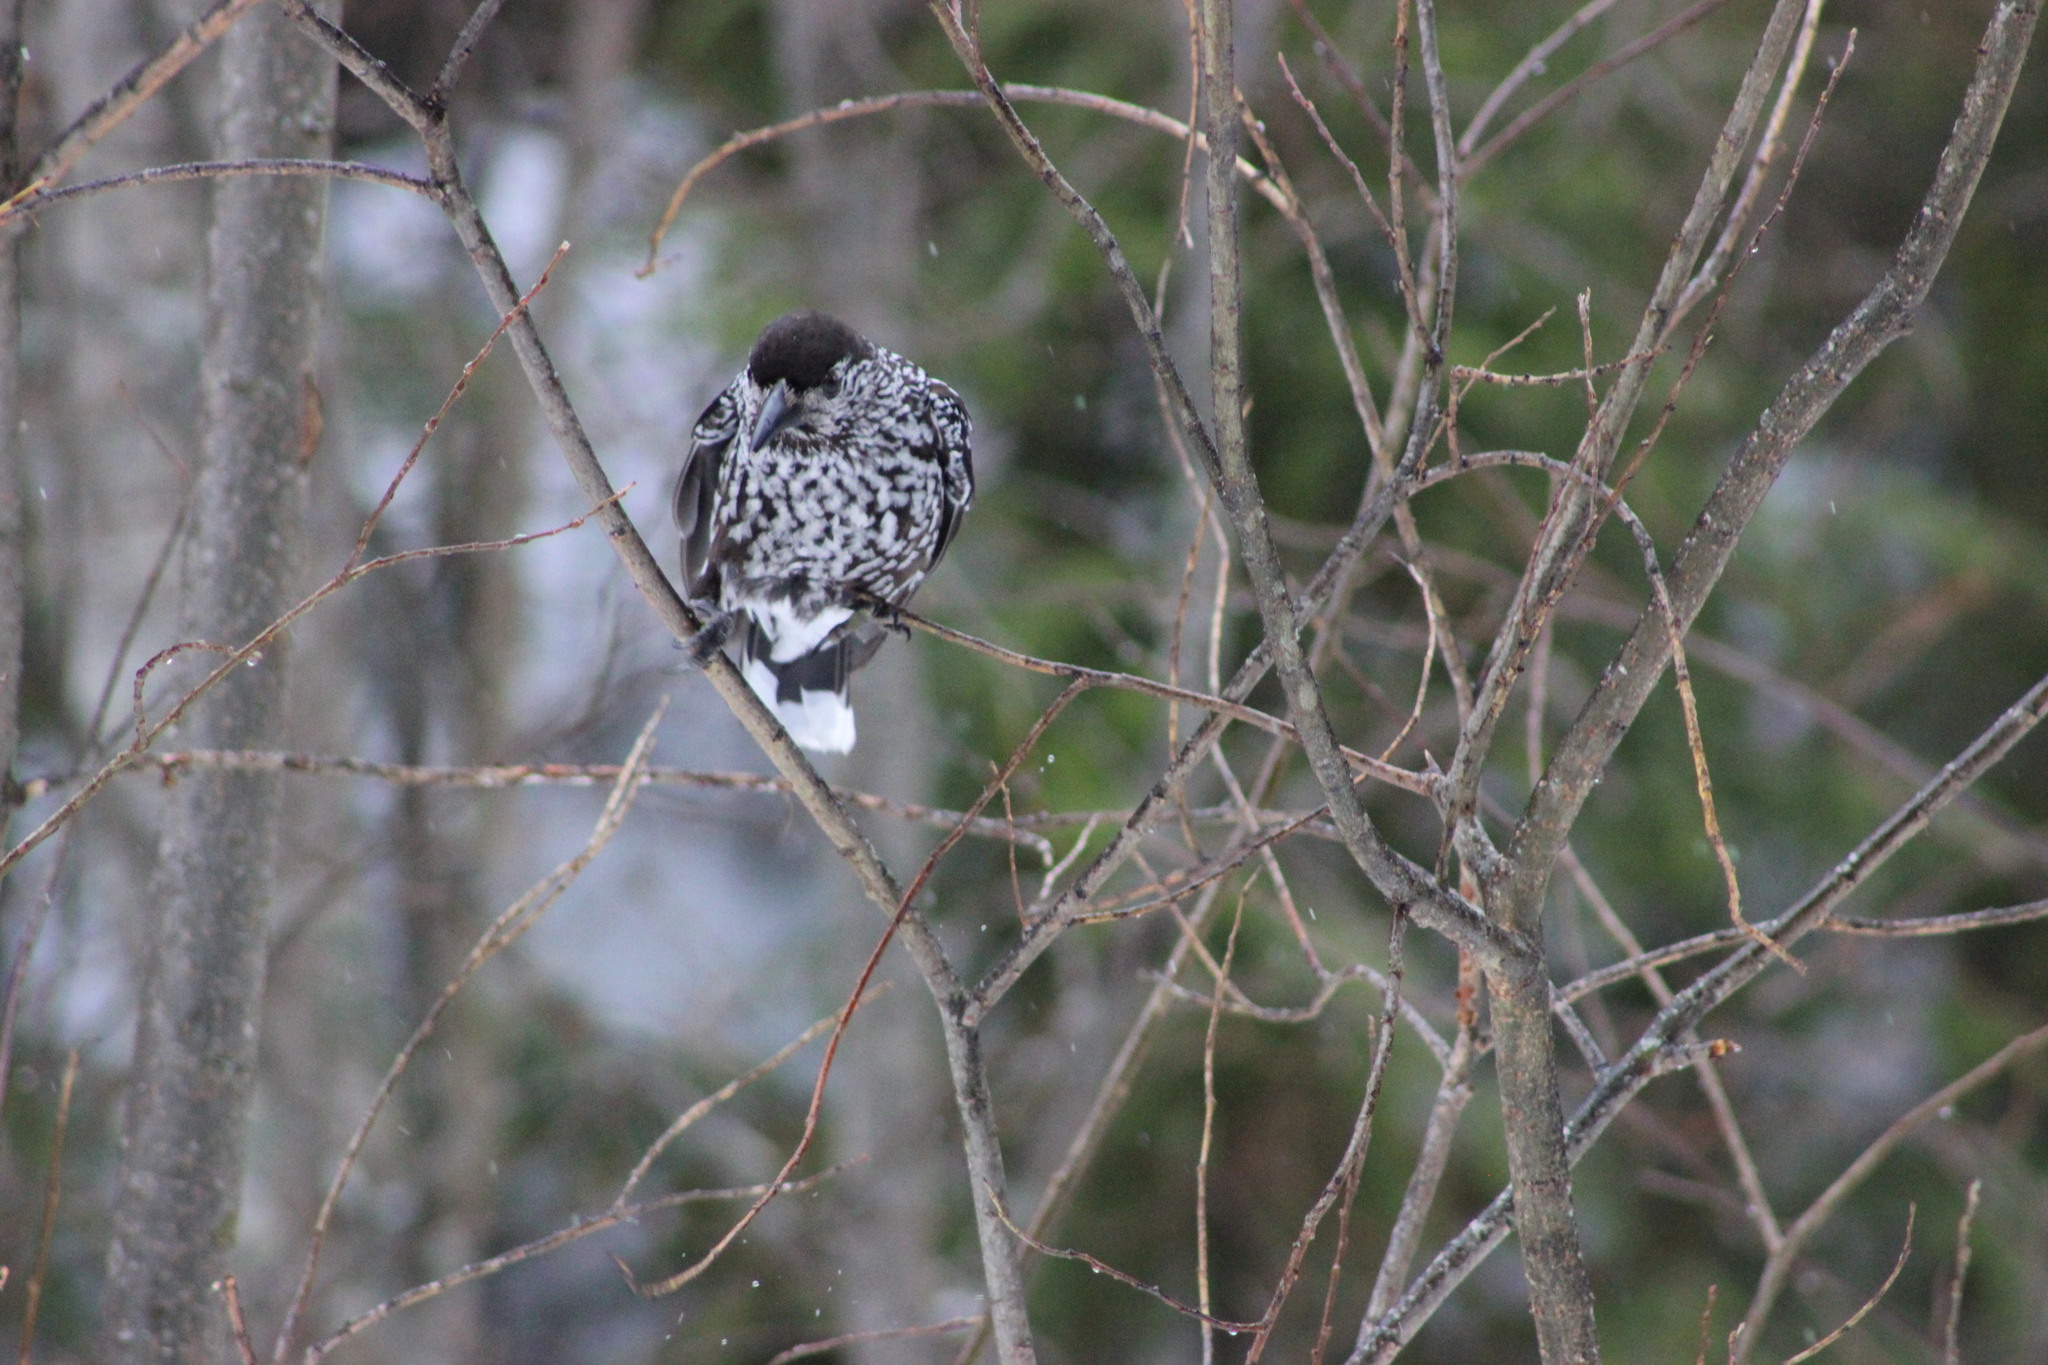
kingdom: Animalia
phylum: Chordata
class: Aves
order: Passeriformes
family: Corvidae
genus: Nucifraga
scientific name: Nucifraga caryocatactes
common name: Spotted nutcracker
